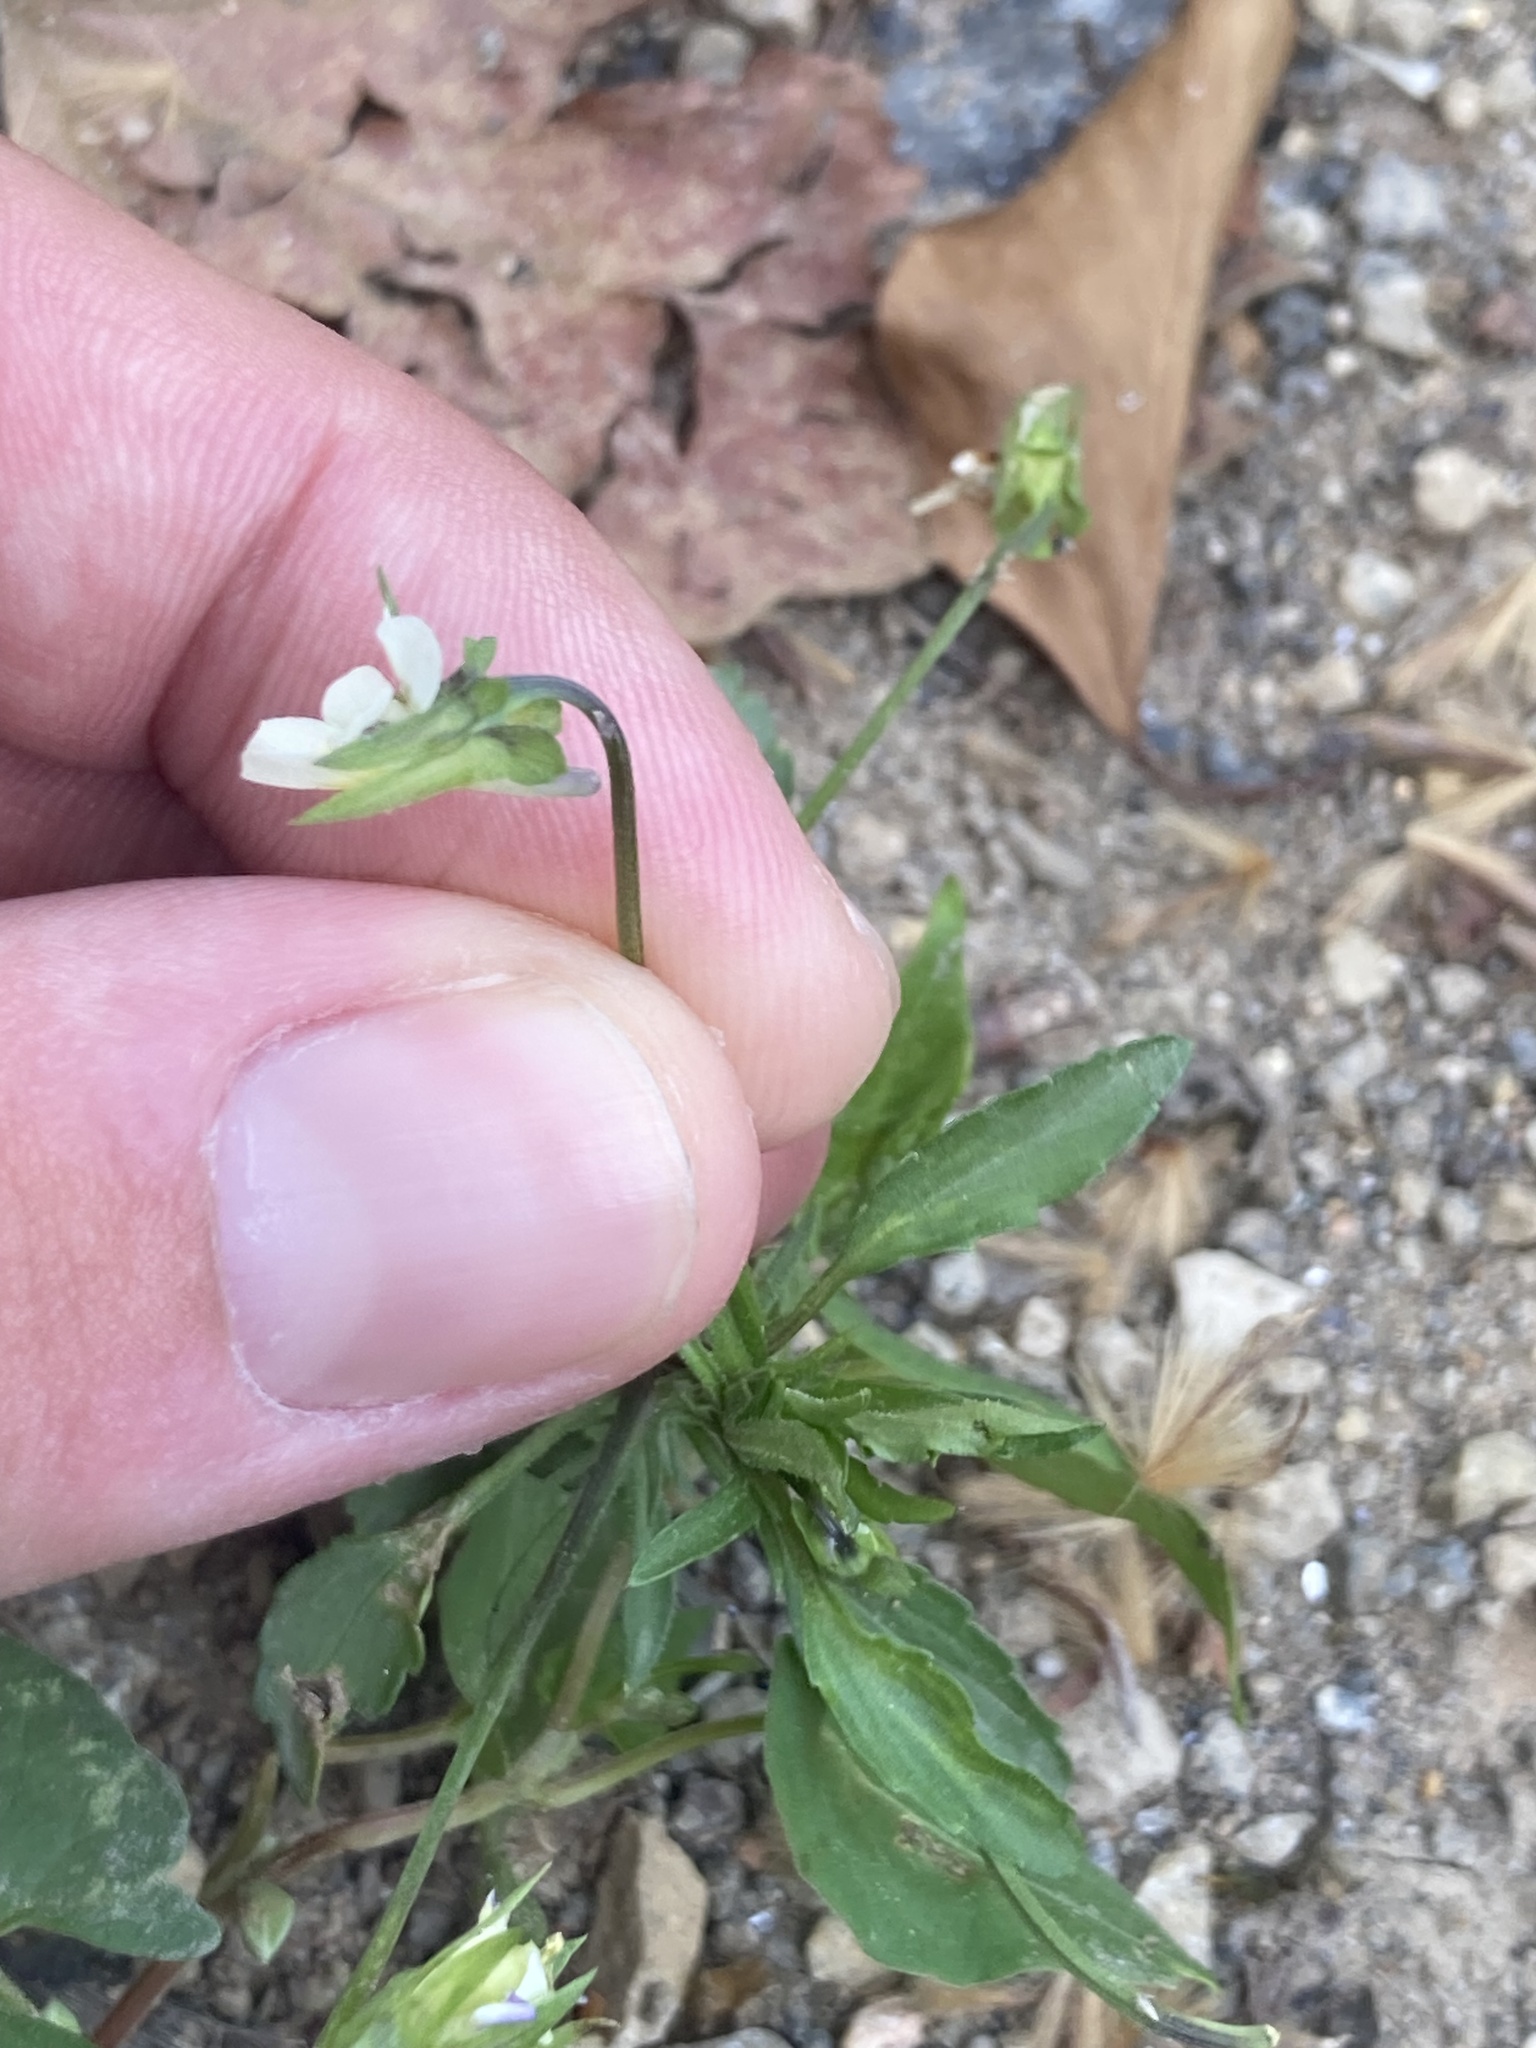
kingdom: Plantae
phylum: Tracheophyta
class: Magnoliopsida
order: Malpighiales
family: Violaceae
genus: Viola
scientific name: Viola arvensis
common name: Field pansy
